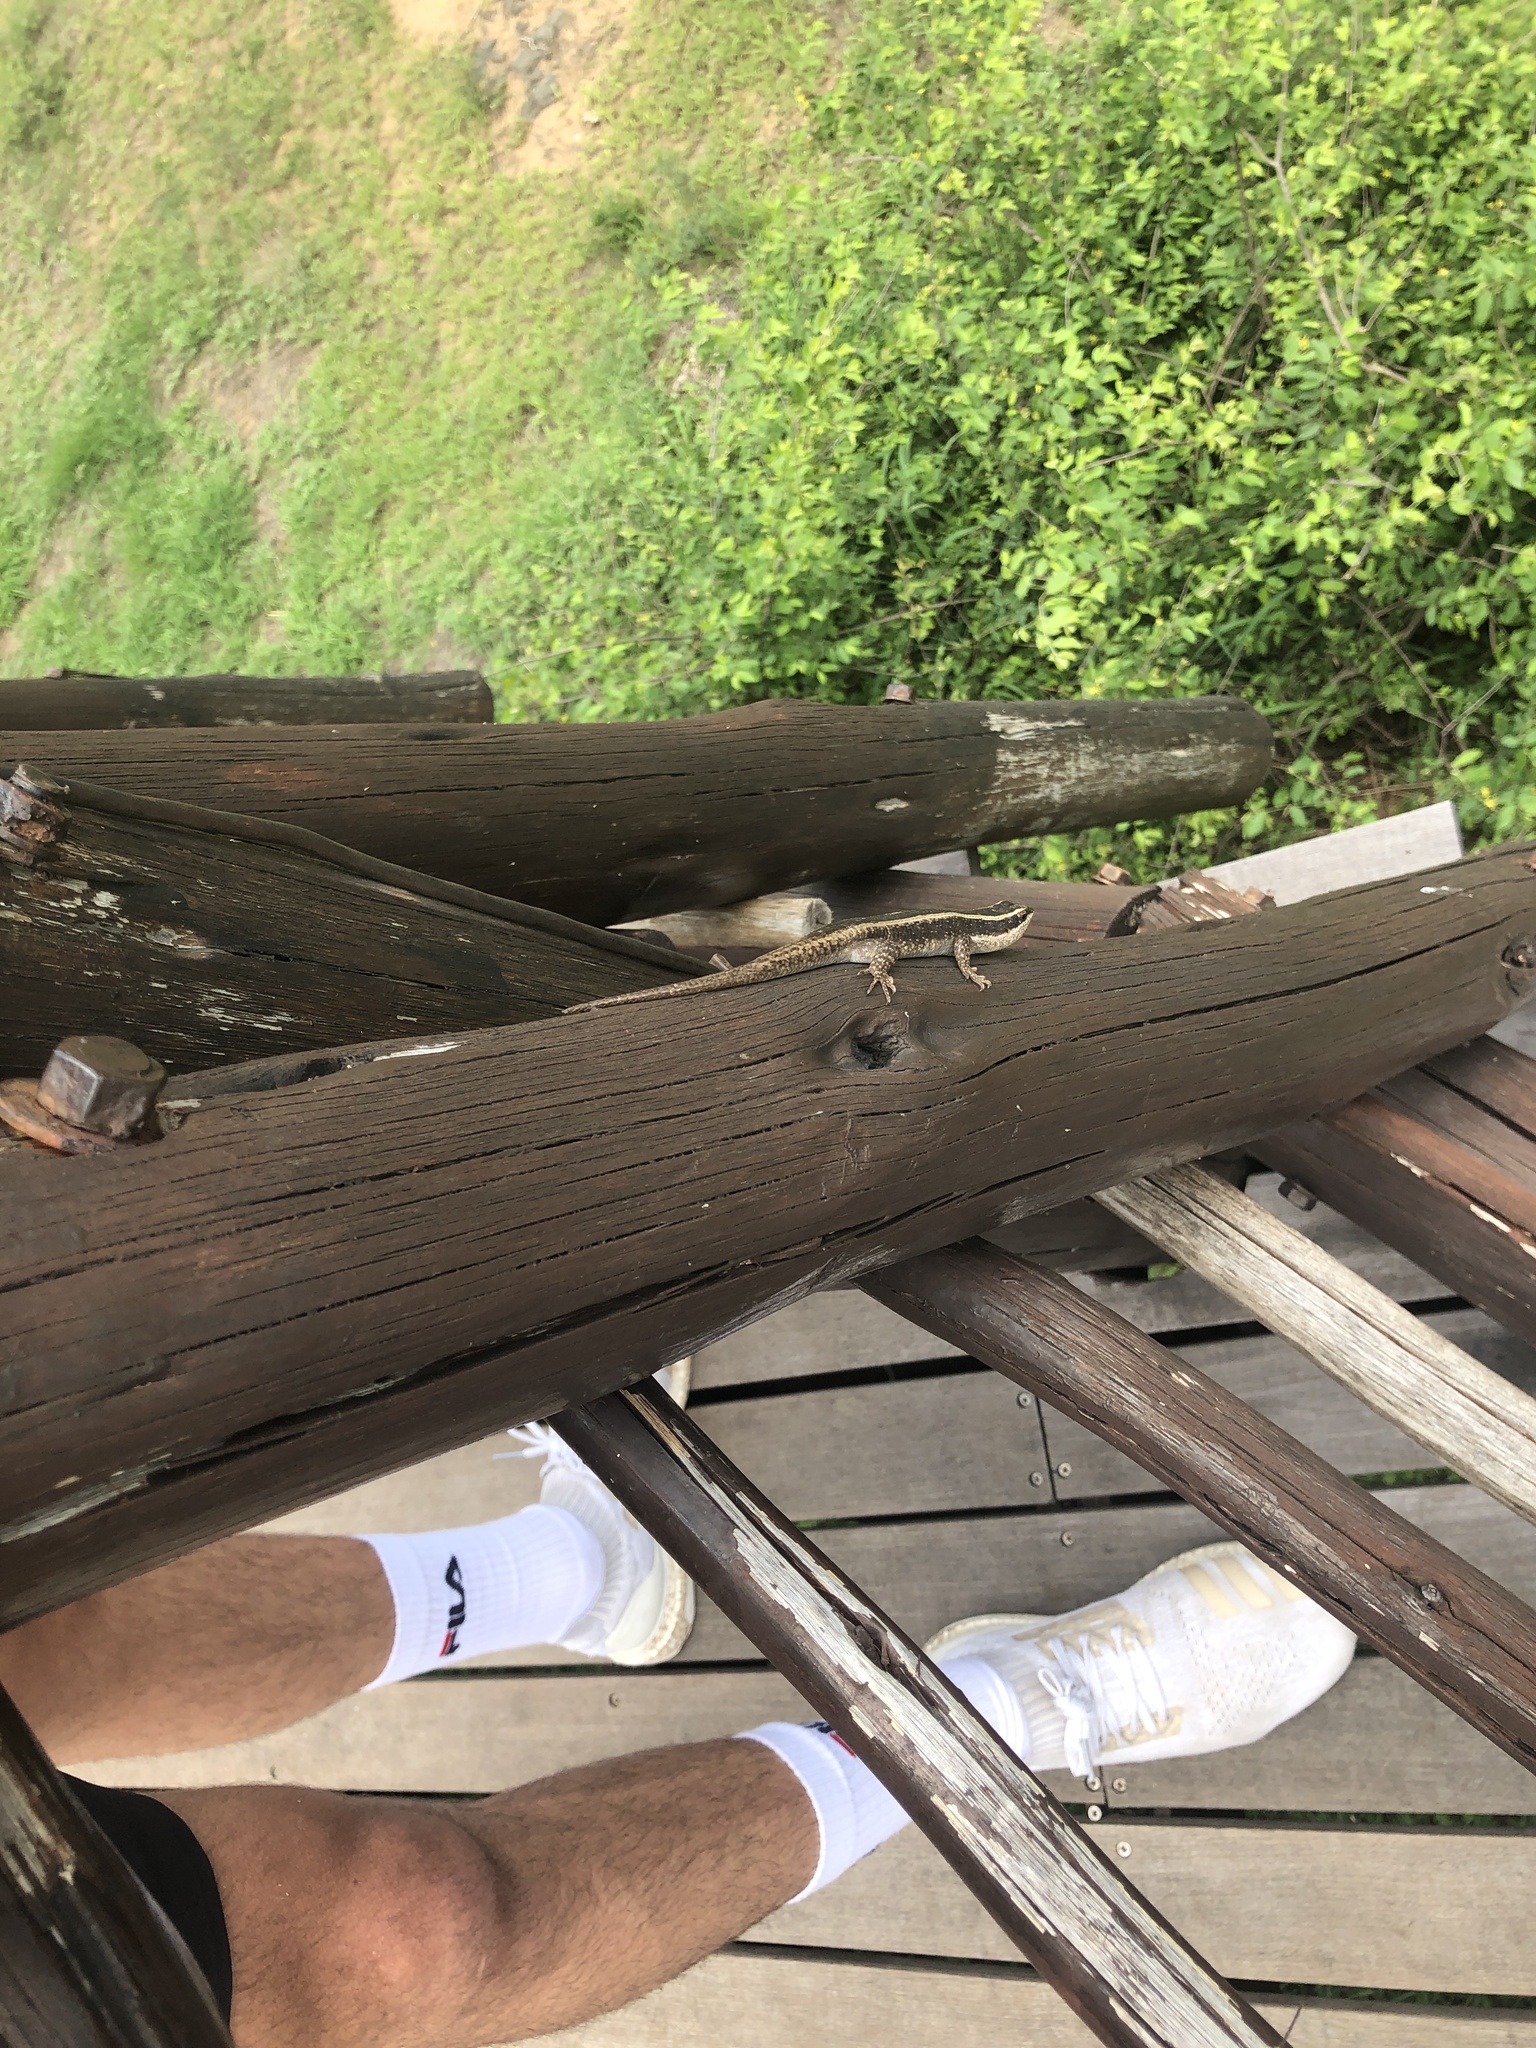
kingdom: Animalia
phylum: Chordata
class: Squamata
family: Scincidae
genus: Trachylepis
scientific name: Trachylepis striata
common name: African striped mabuya
